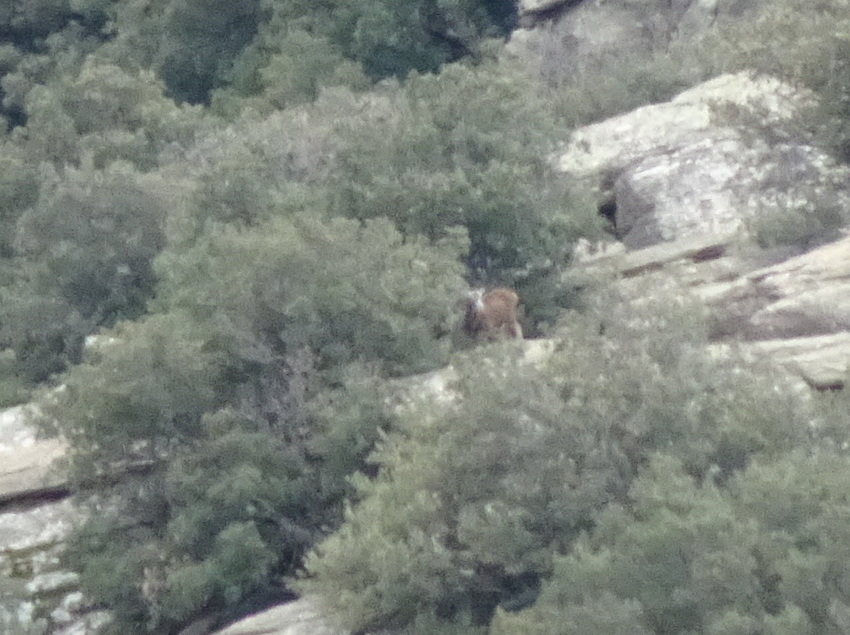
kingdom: Animalia
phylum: Chordata
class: Mammalia
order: Artiodactyla
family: Bovidae
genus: Ovis
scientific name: Ovis aries
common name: Domestic sheep
